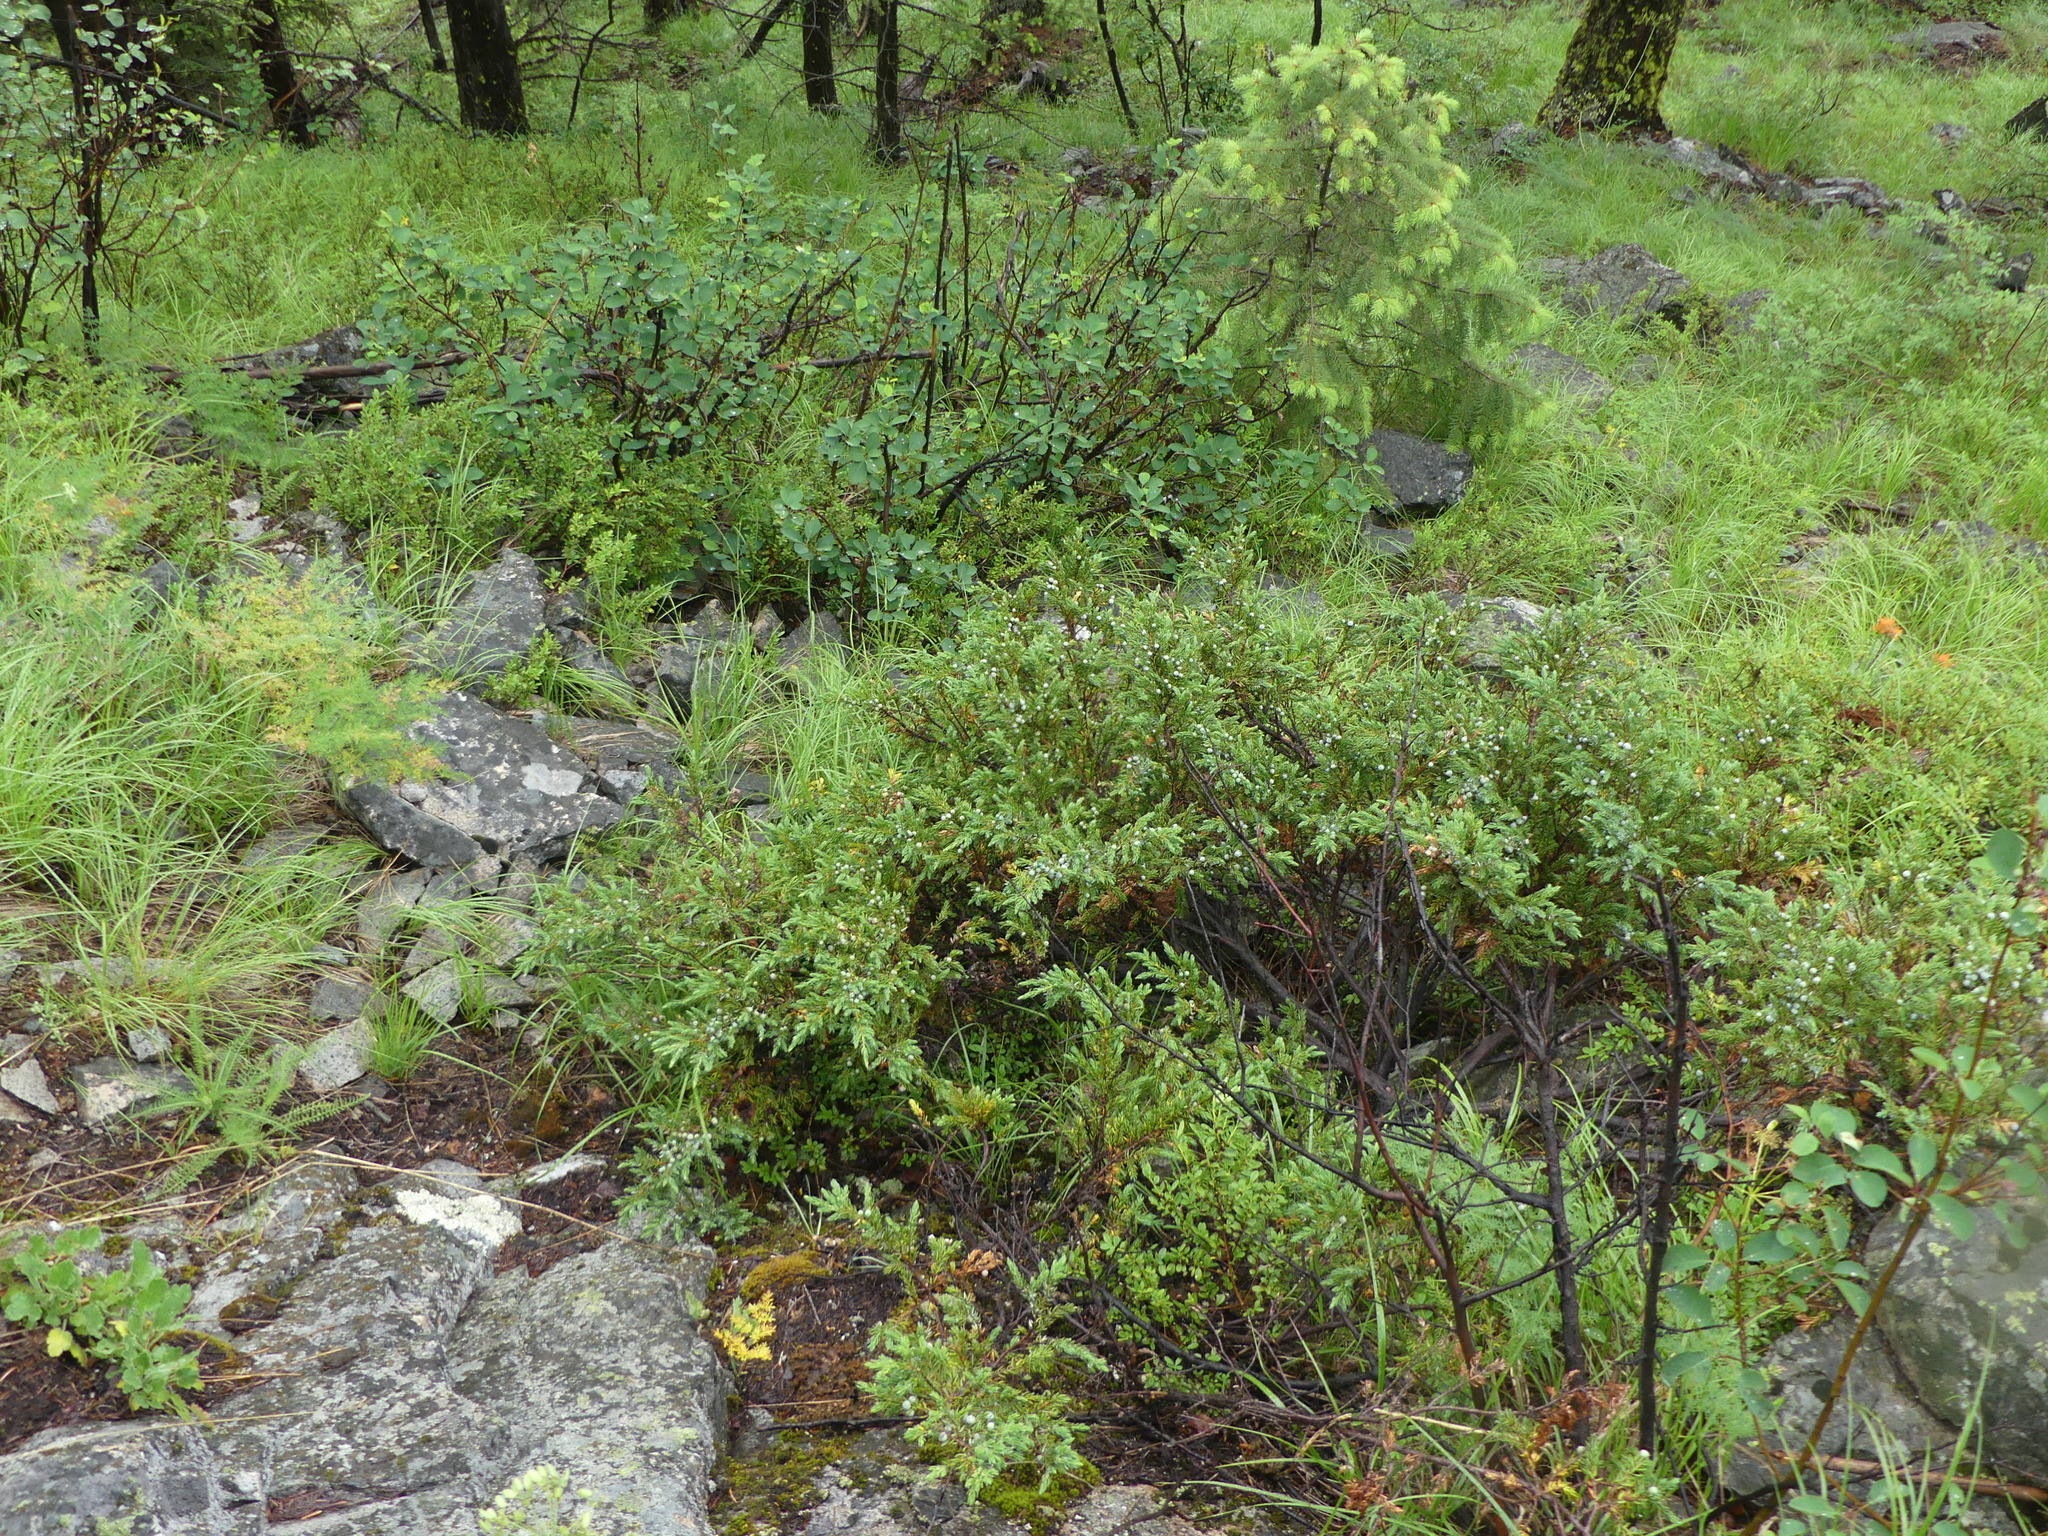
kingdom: Plantae
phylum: Tracheophyta
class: Pinopsida
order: Pinales
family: Cupressaceae
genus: Juniperus
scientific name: Juniperus communis
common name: Common juniper
